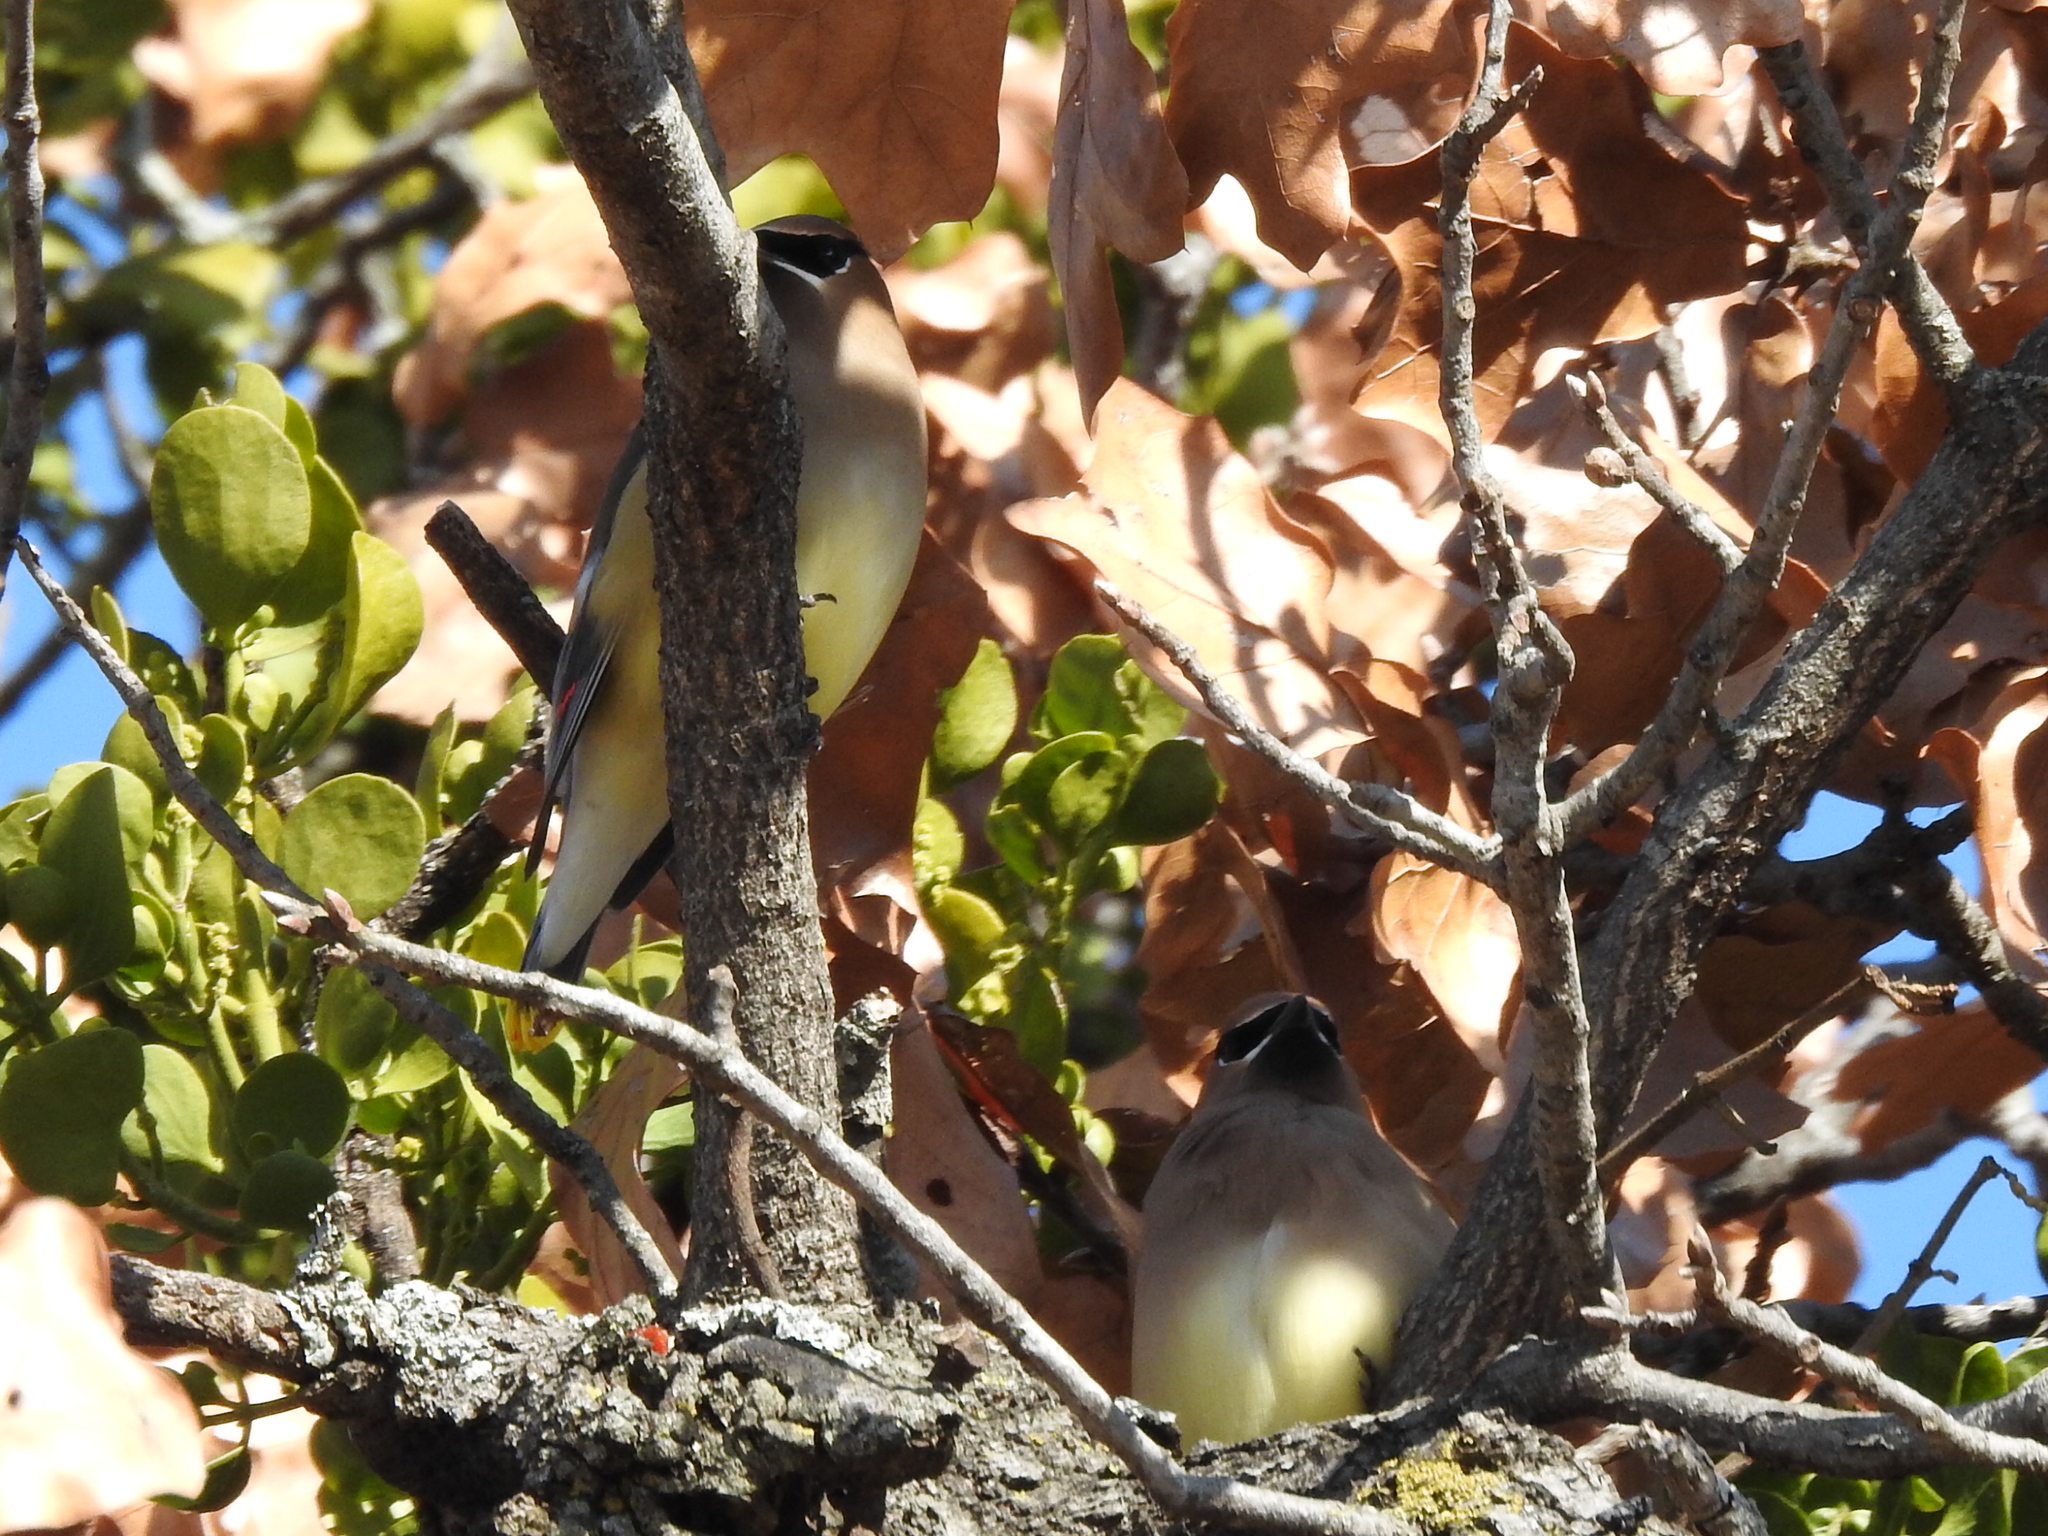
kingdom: Animalia
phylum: Chordata
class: Aves
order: Passeriformes
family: Bombycillidae
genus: Bombycilla
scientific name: Bombycilla cedrorum
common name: Cedar waxwing
